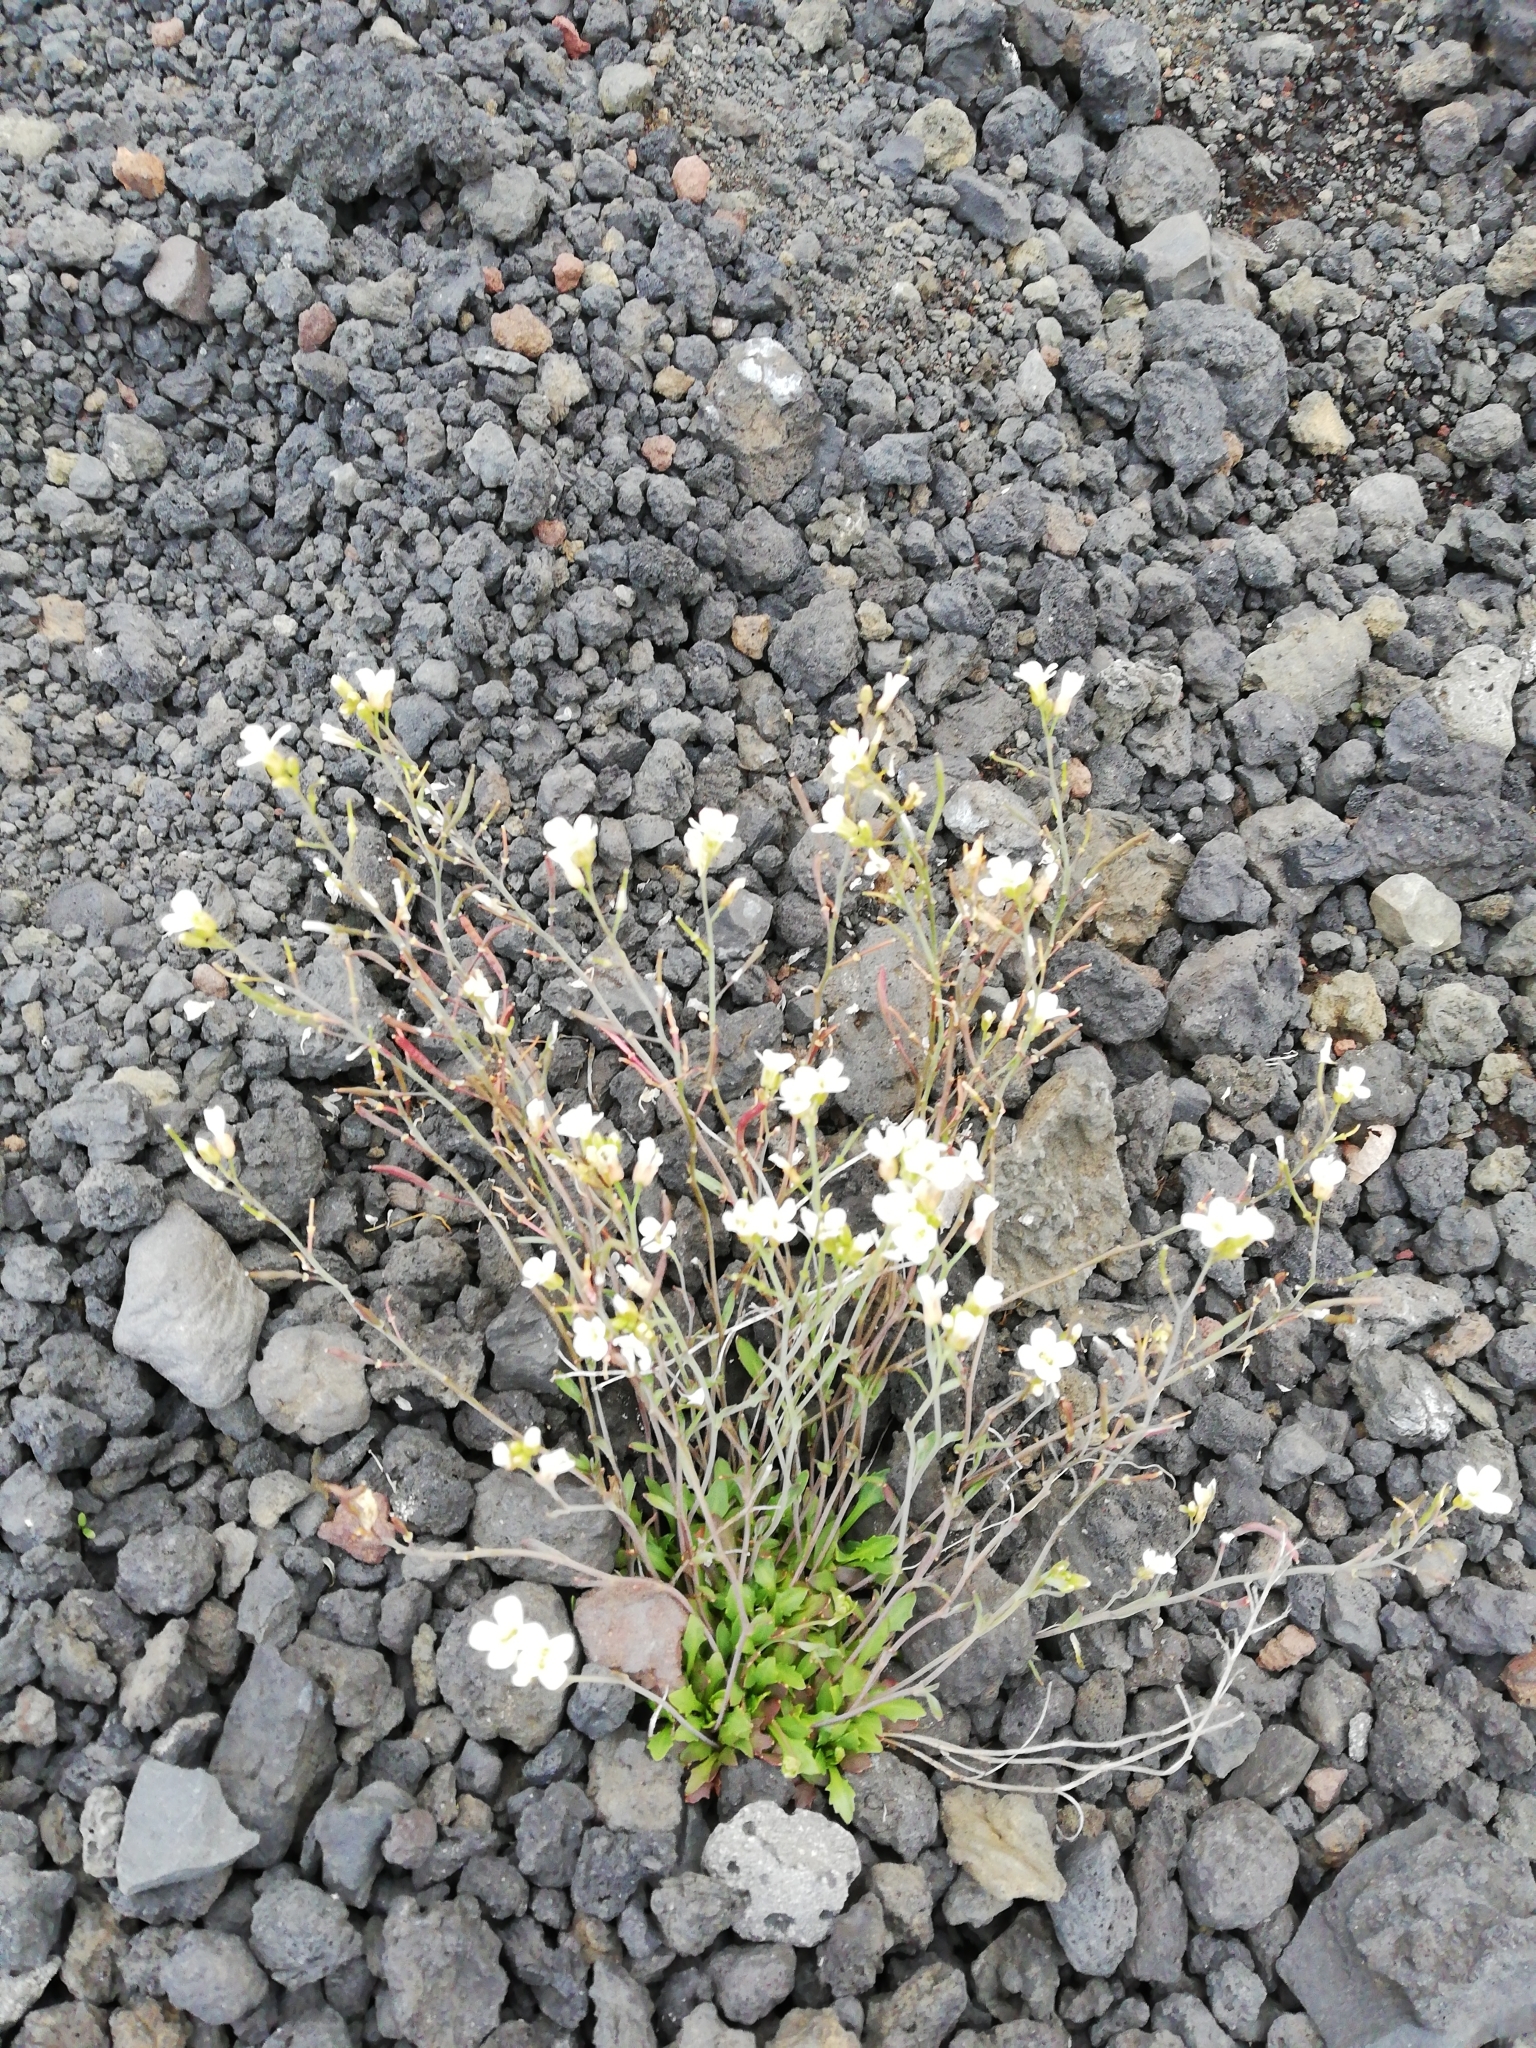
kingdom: Plantae
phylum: Tracheophyta
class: Magnoliopsida
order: Brassicales
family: Brassicaceae
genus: Arabidopsis
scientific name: Arabidopsis lyrata
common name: Lyrate rockcress
